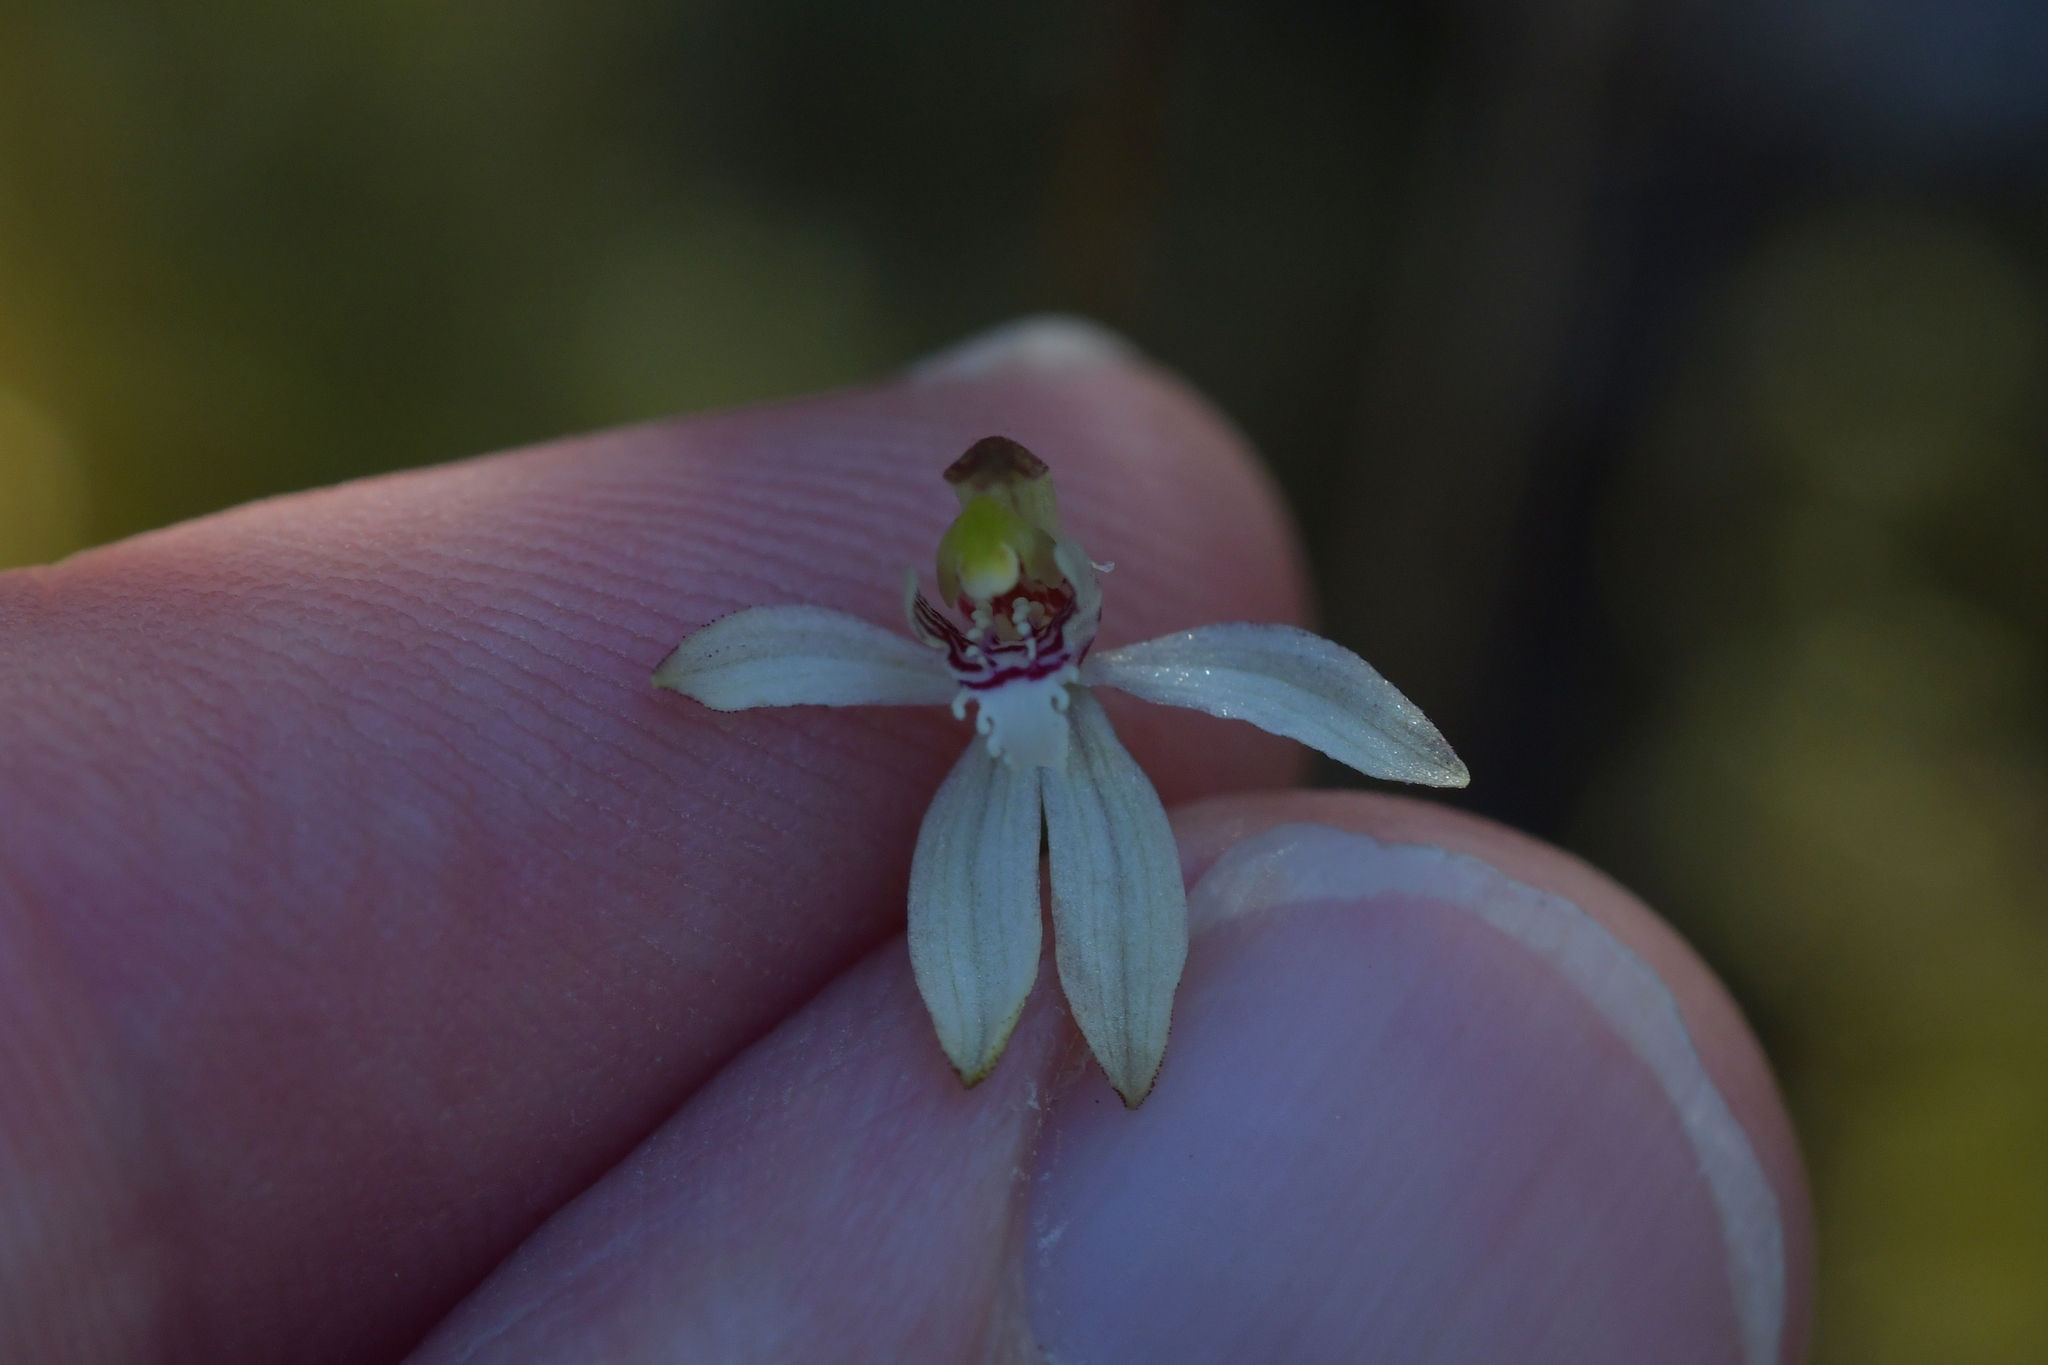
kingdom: Plantae
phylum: Tracheophyta
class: Liliopsida
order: Asparagales
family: Orchidaceae
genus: Caladenia
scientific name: Caladenia chlorostyla
